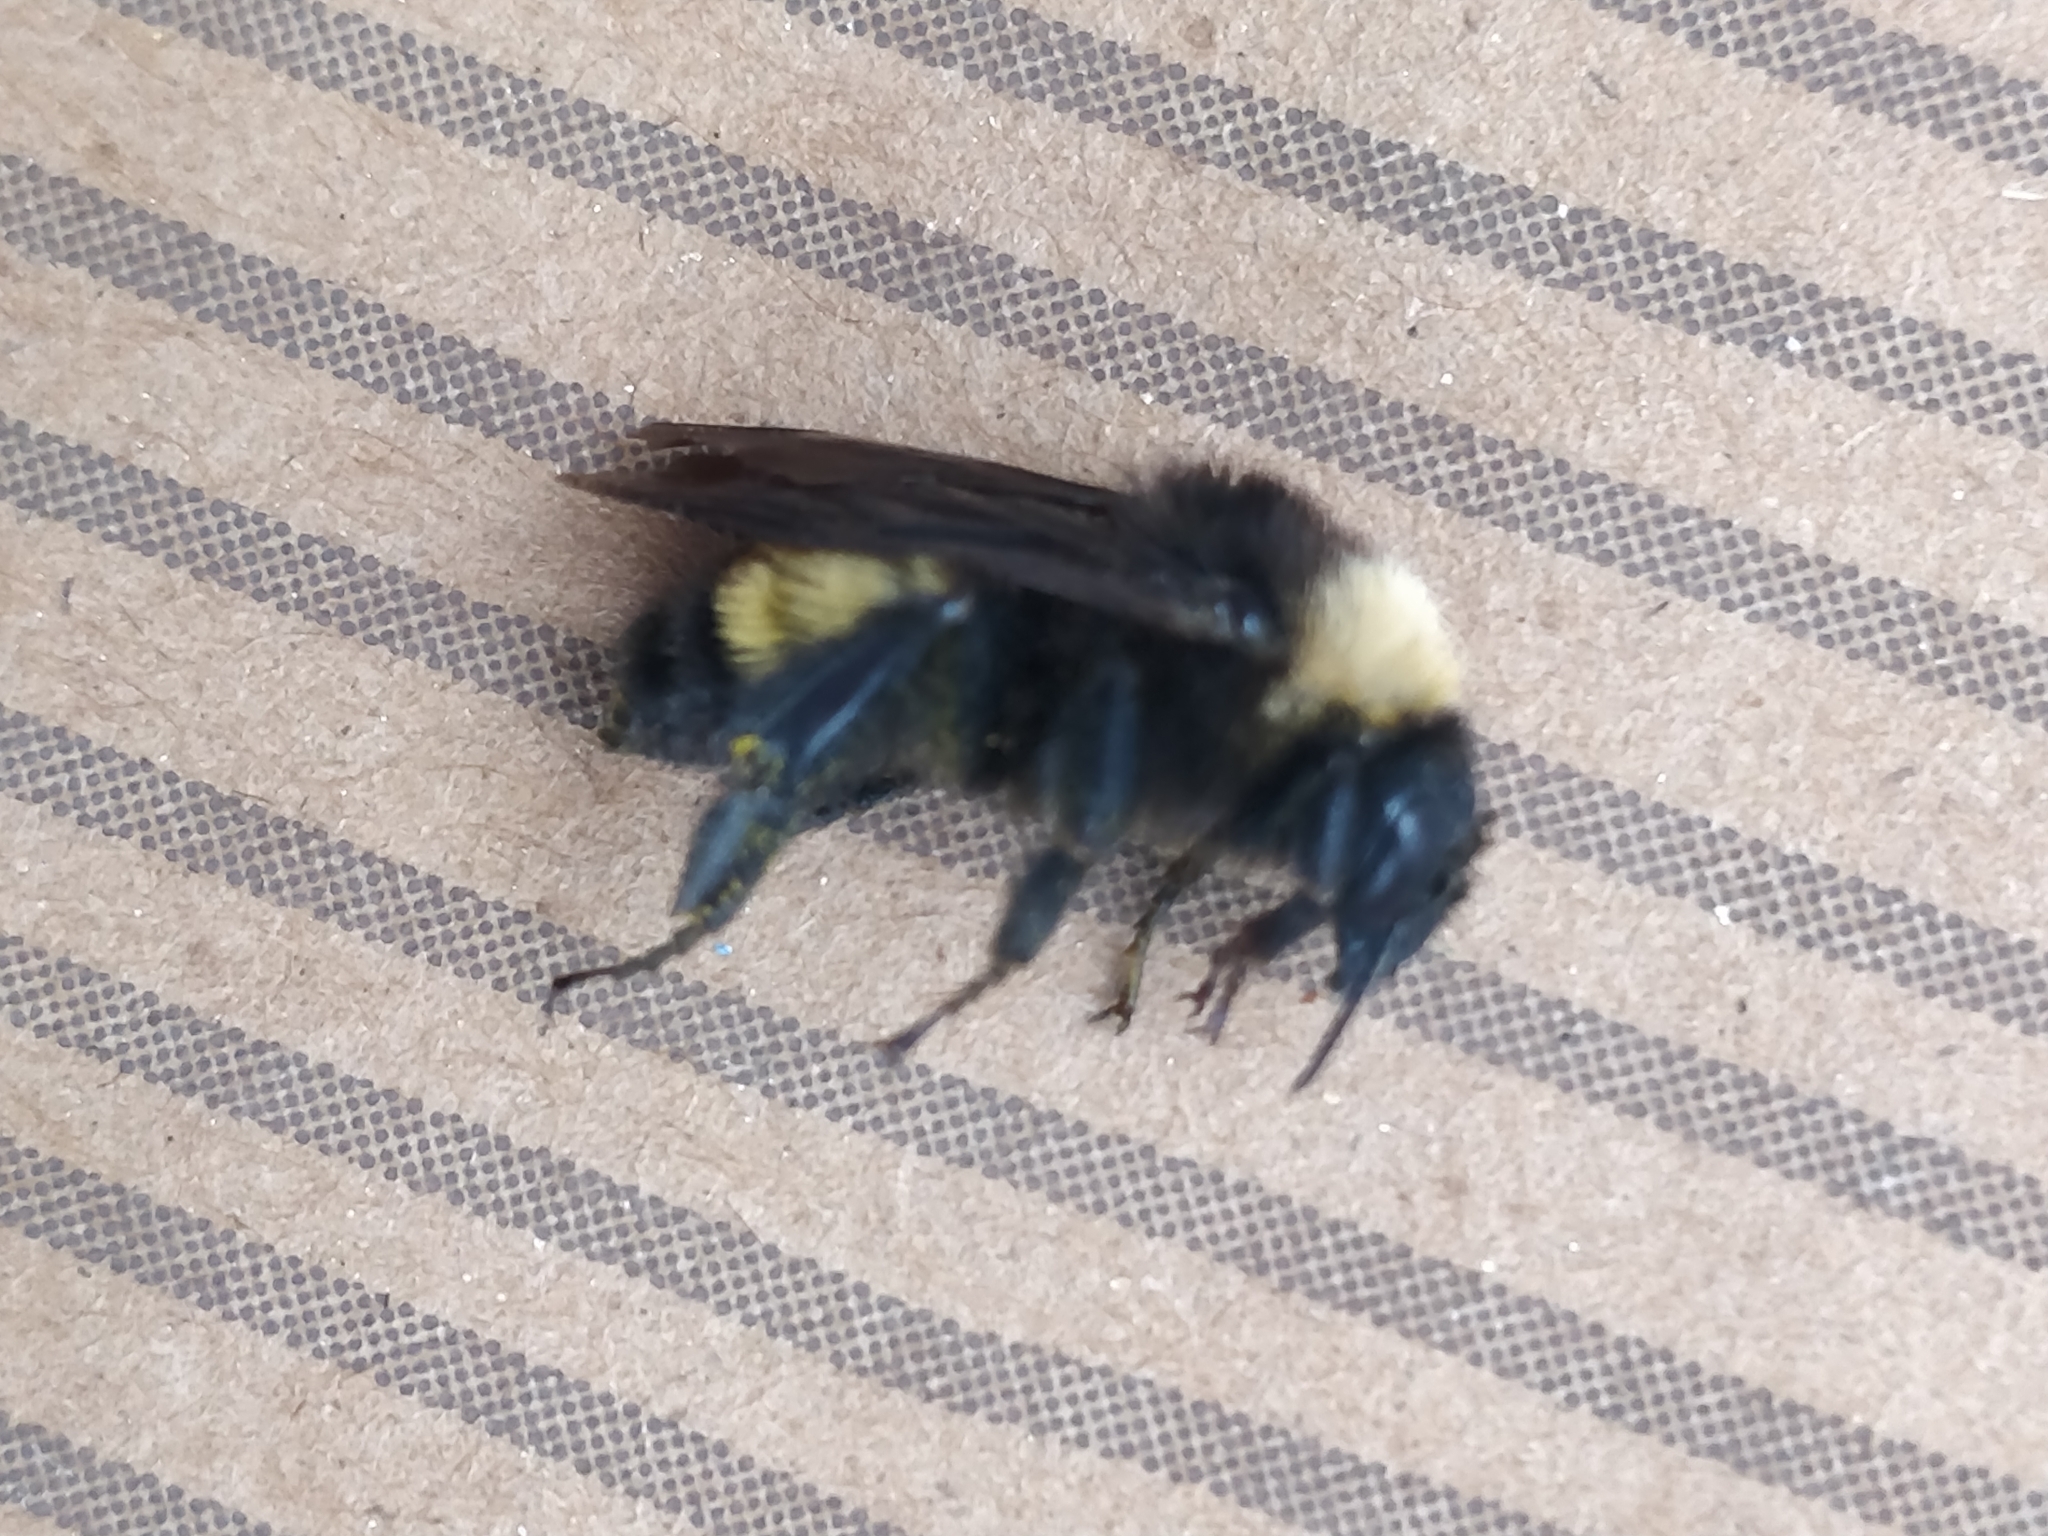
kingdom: Animalia
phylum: Arthropoda
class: Insecta
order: Hymenoptera
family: Apidae
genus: Bombus
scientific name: Bombus pensylvanicus
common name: Bumble bee
